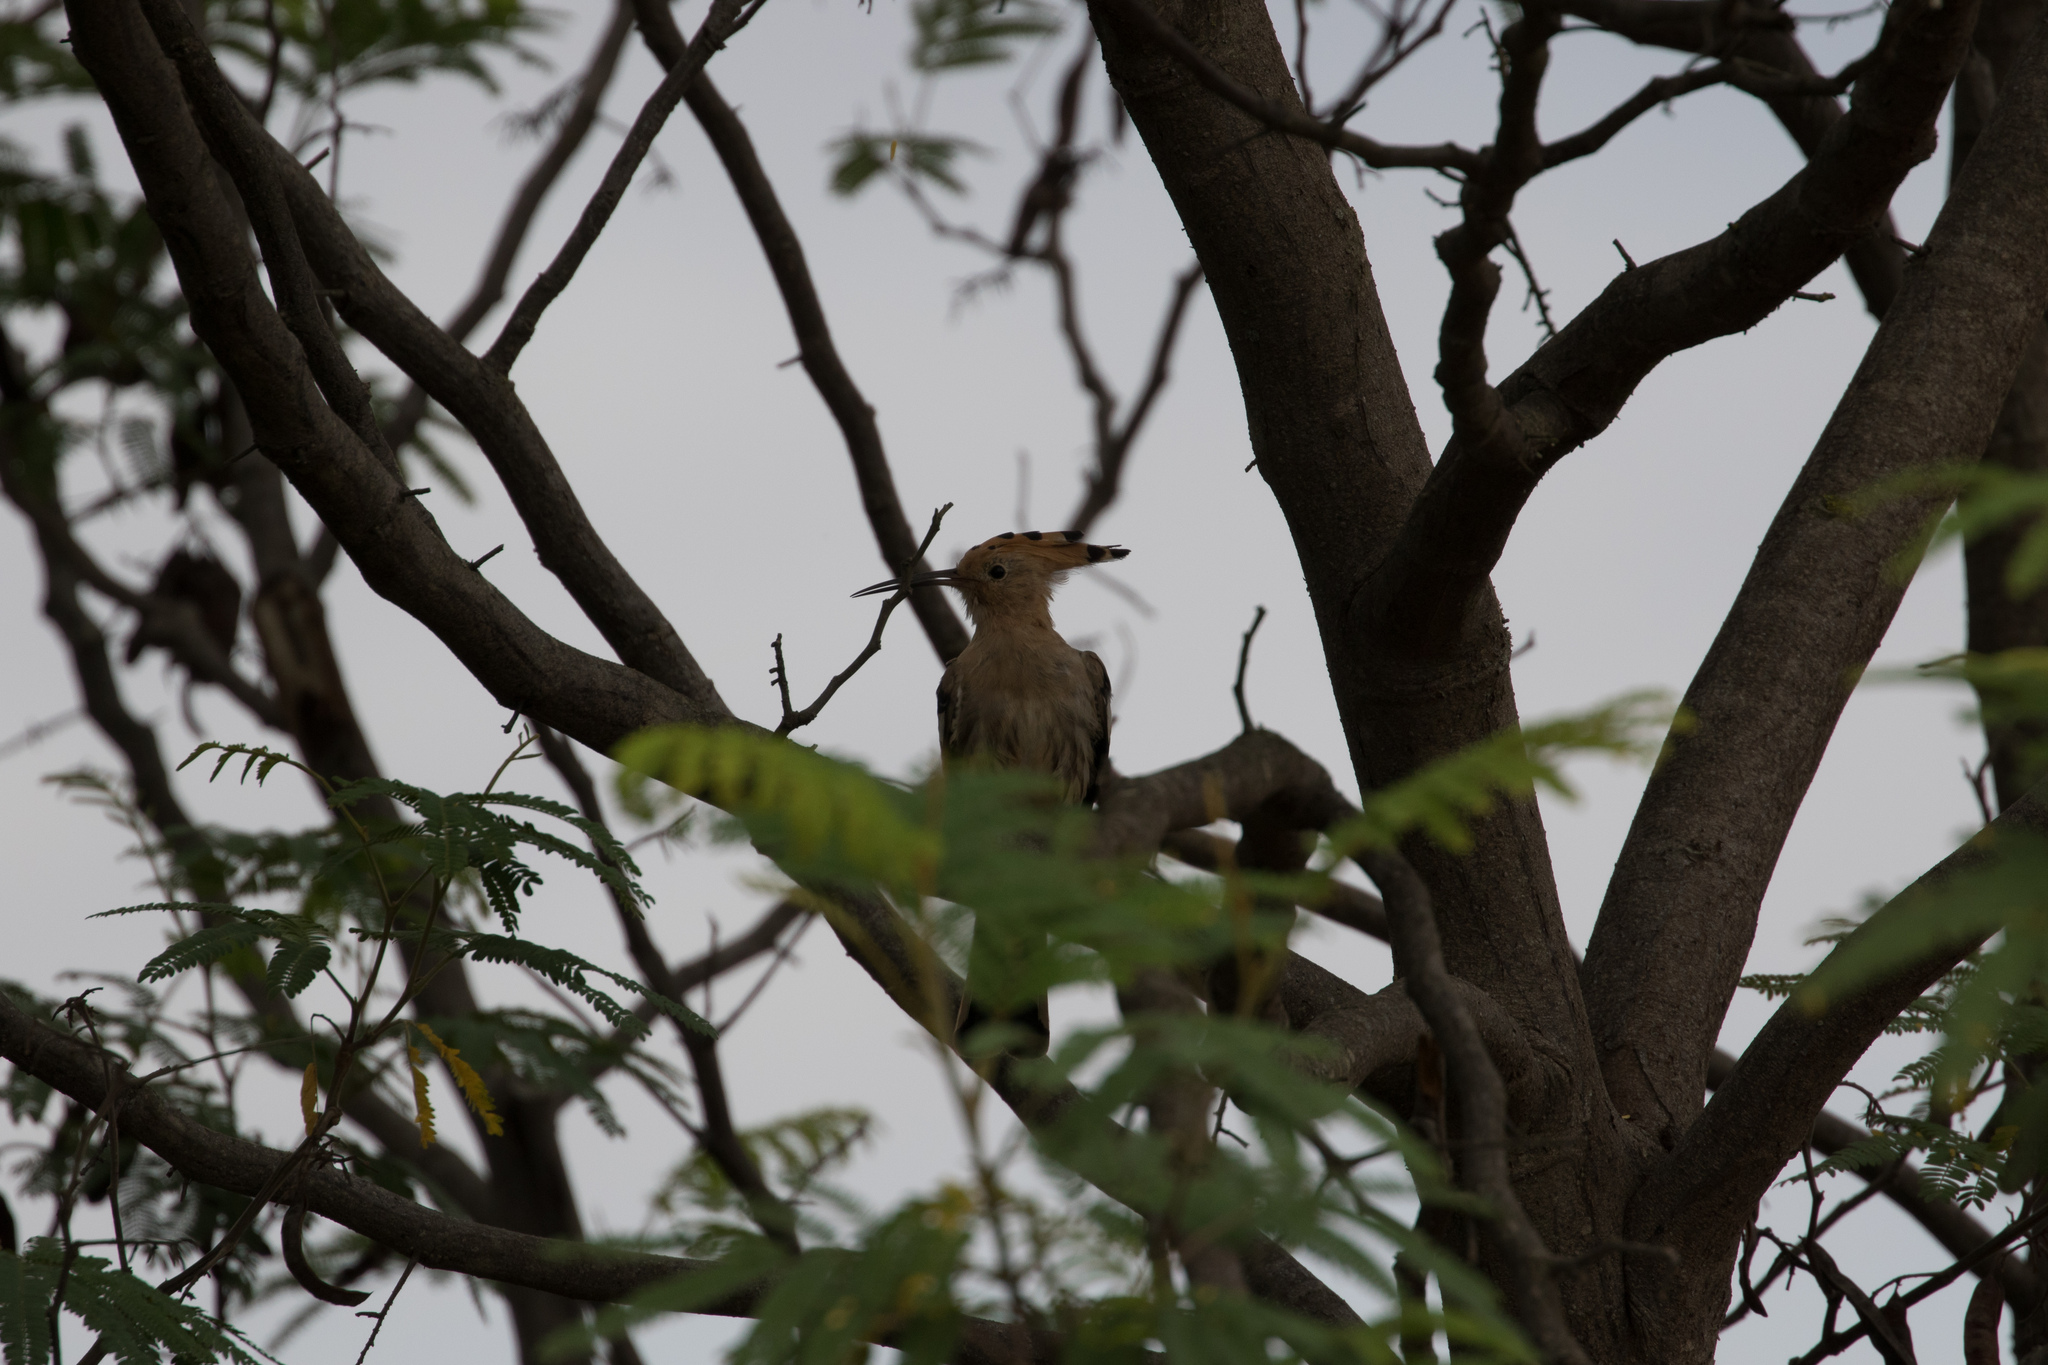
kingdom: Animalia
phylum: Chordata
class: Aves
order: Bucerotiformes
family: Upupidae
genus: Upupa
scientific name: Upupa epops
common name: Eurasian hoopoe
